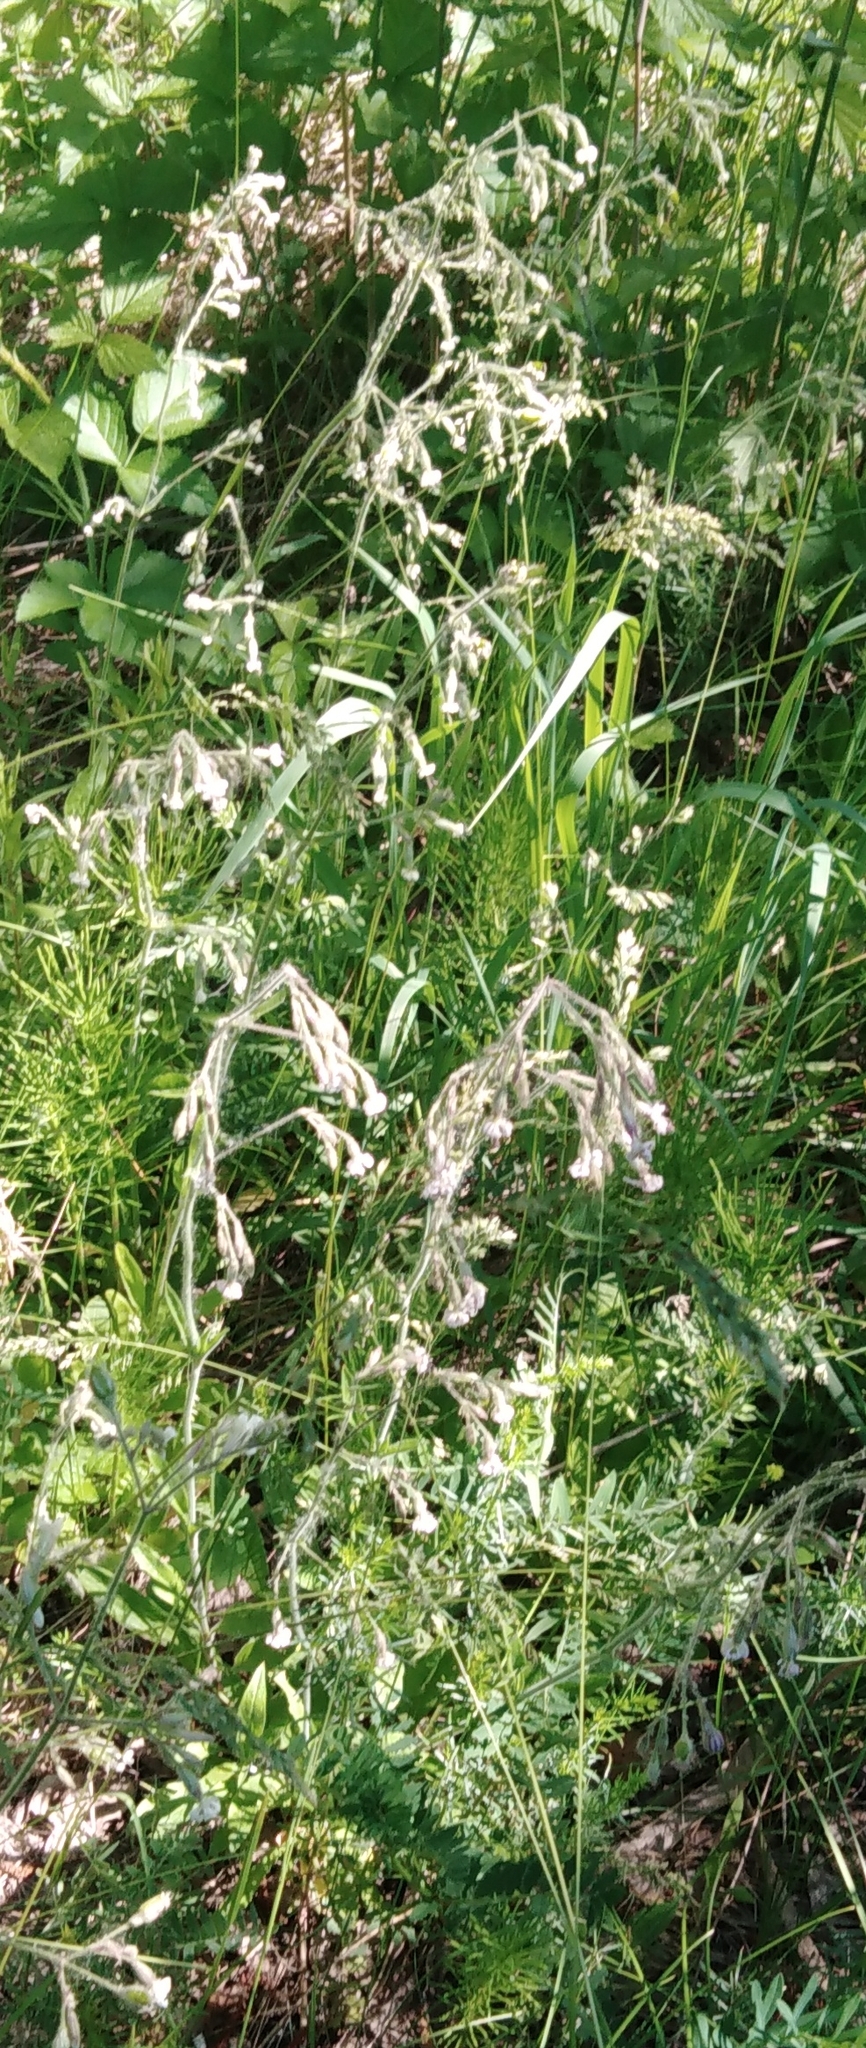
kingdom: Plantae
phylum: Tracheophyta
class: Magnoliopsida
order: Caryophyllales
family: Caryophyllaceae
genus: Silene
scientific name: Silene nutans
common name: Nottingham catchfly
